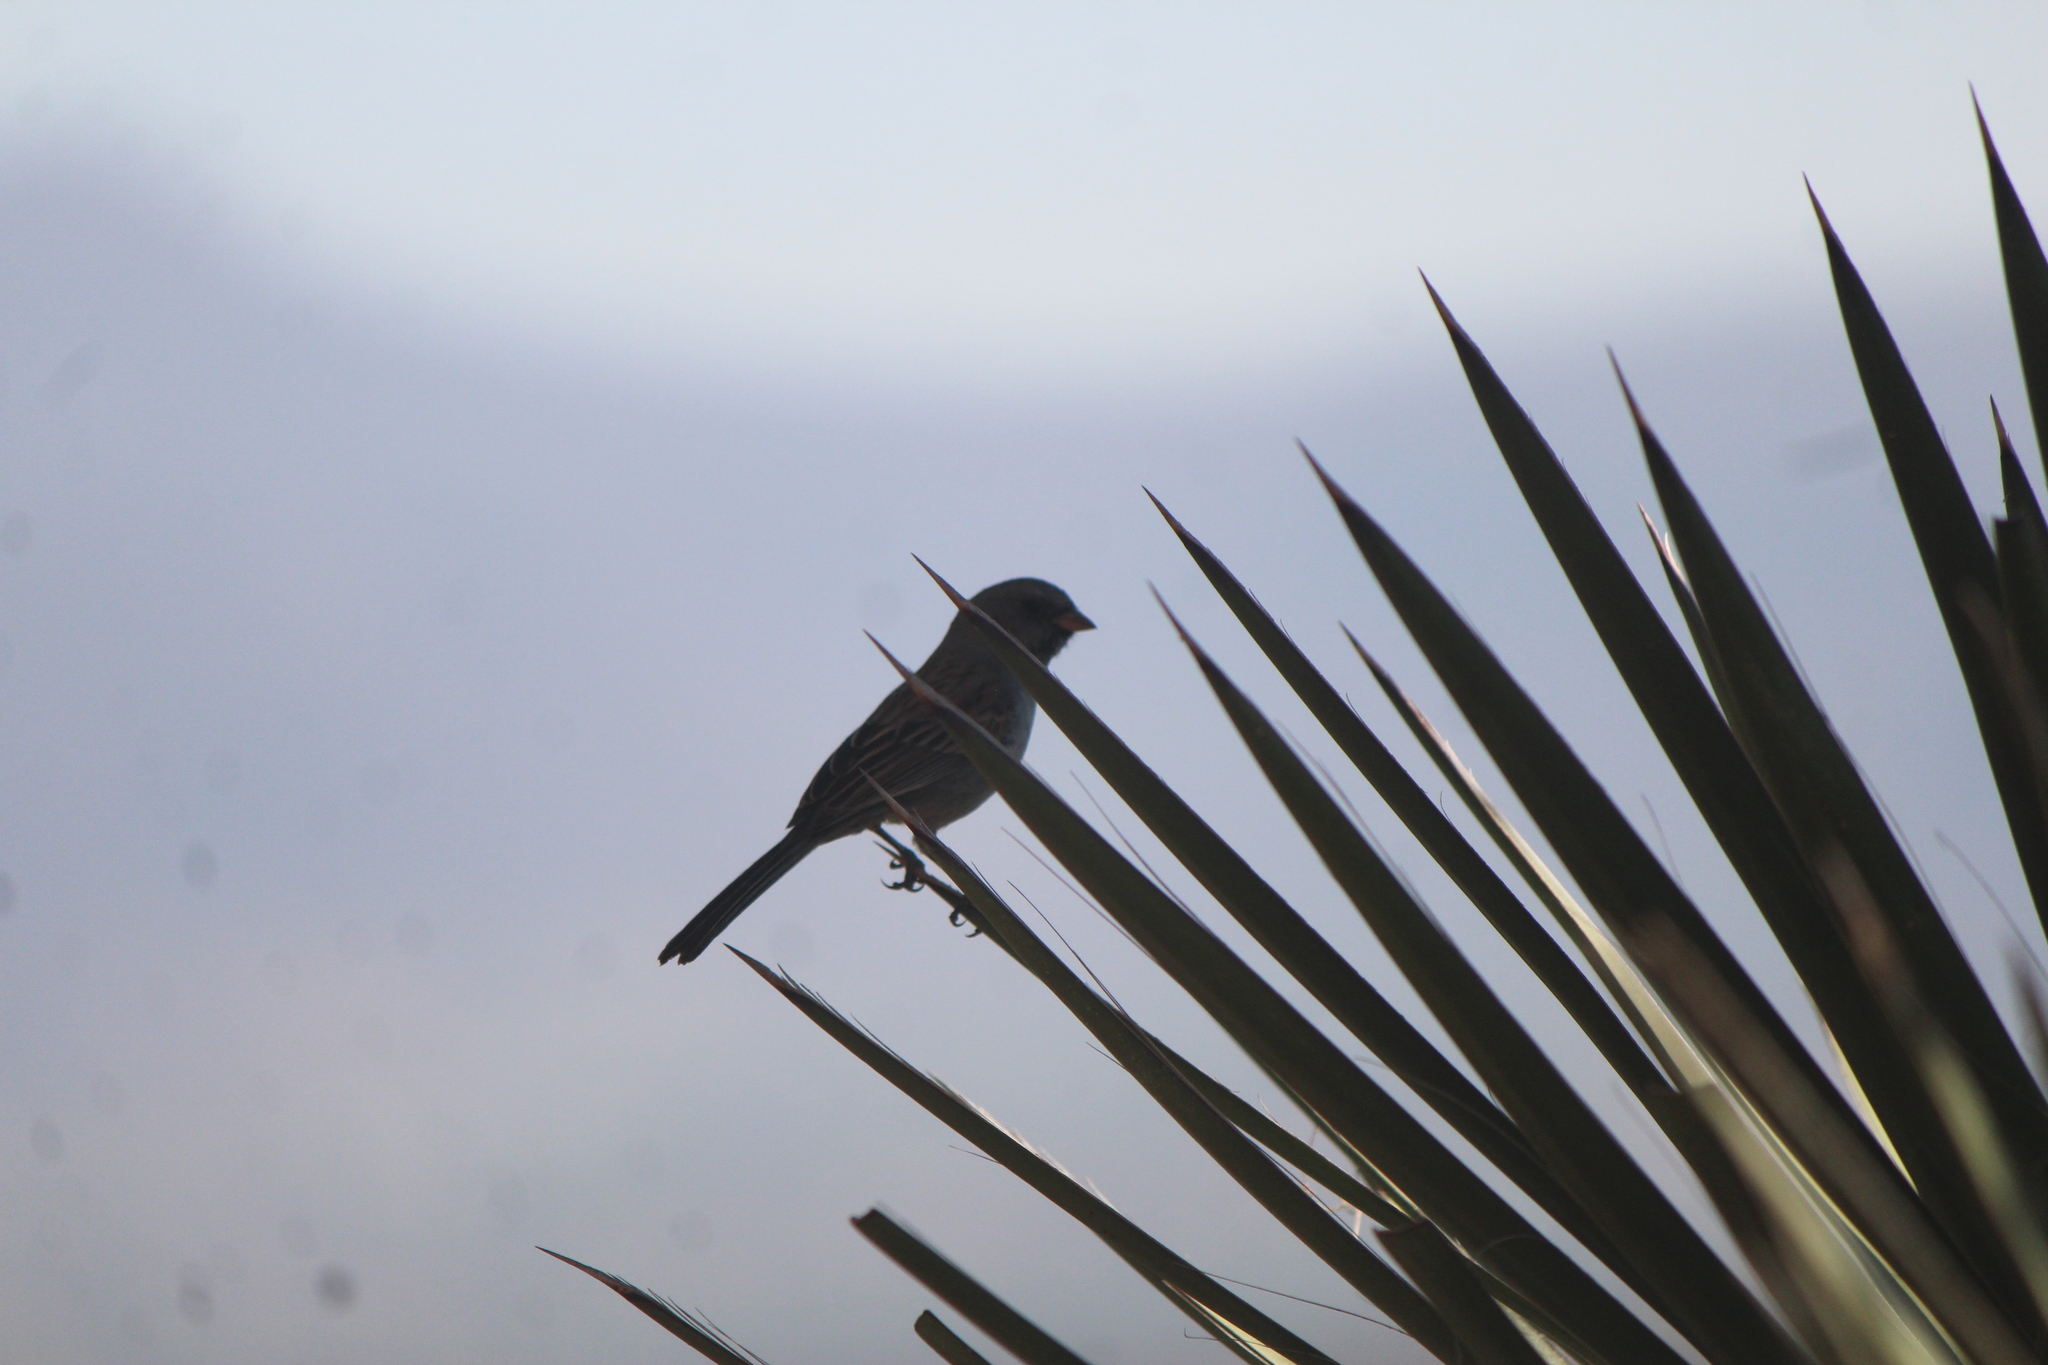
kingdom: Animalia
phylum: Chordata
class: Aves
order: Passeriformes
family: Passerellidae
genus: Spizella
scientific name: Spizella atrogularis
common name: Black-chinned sparrow
